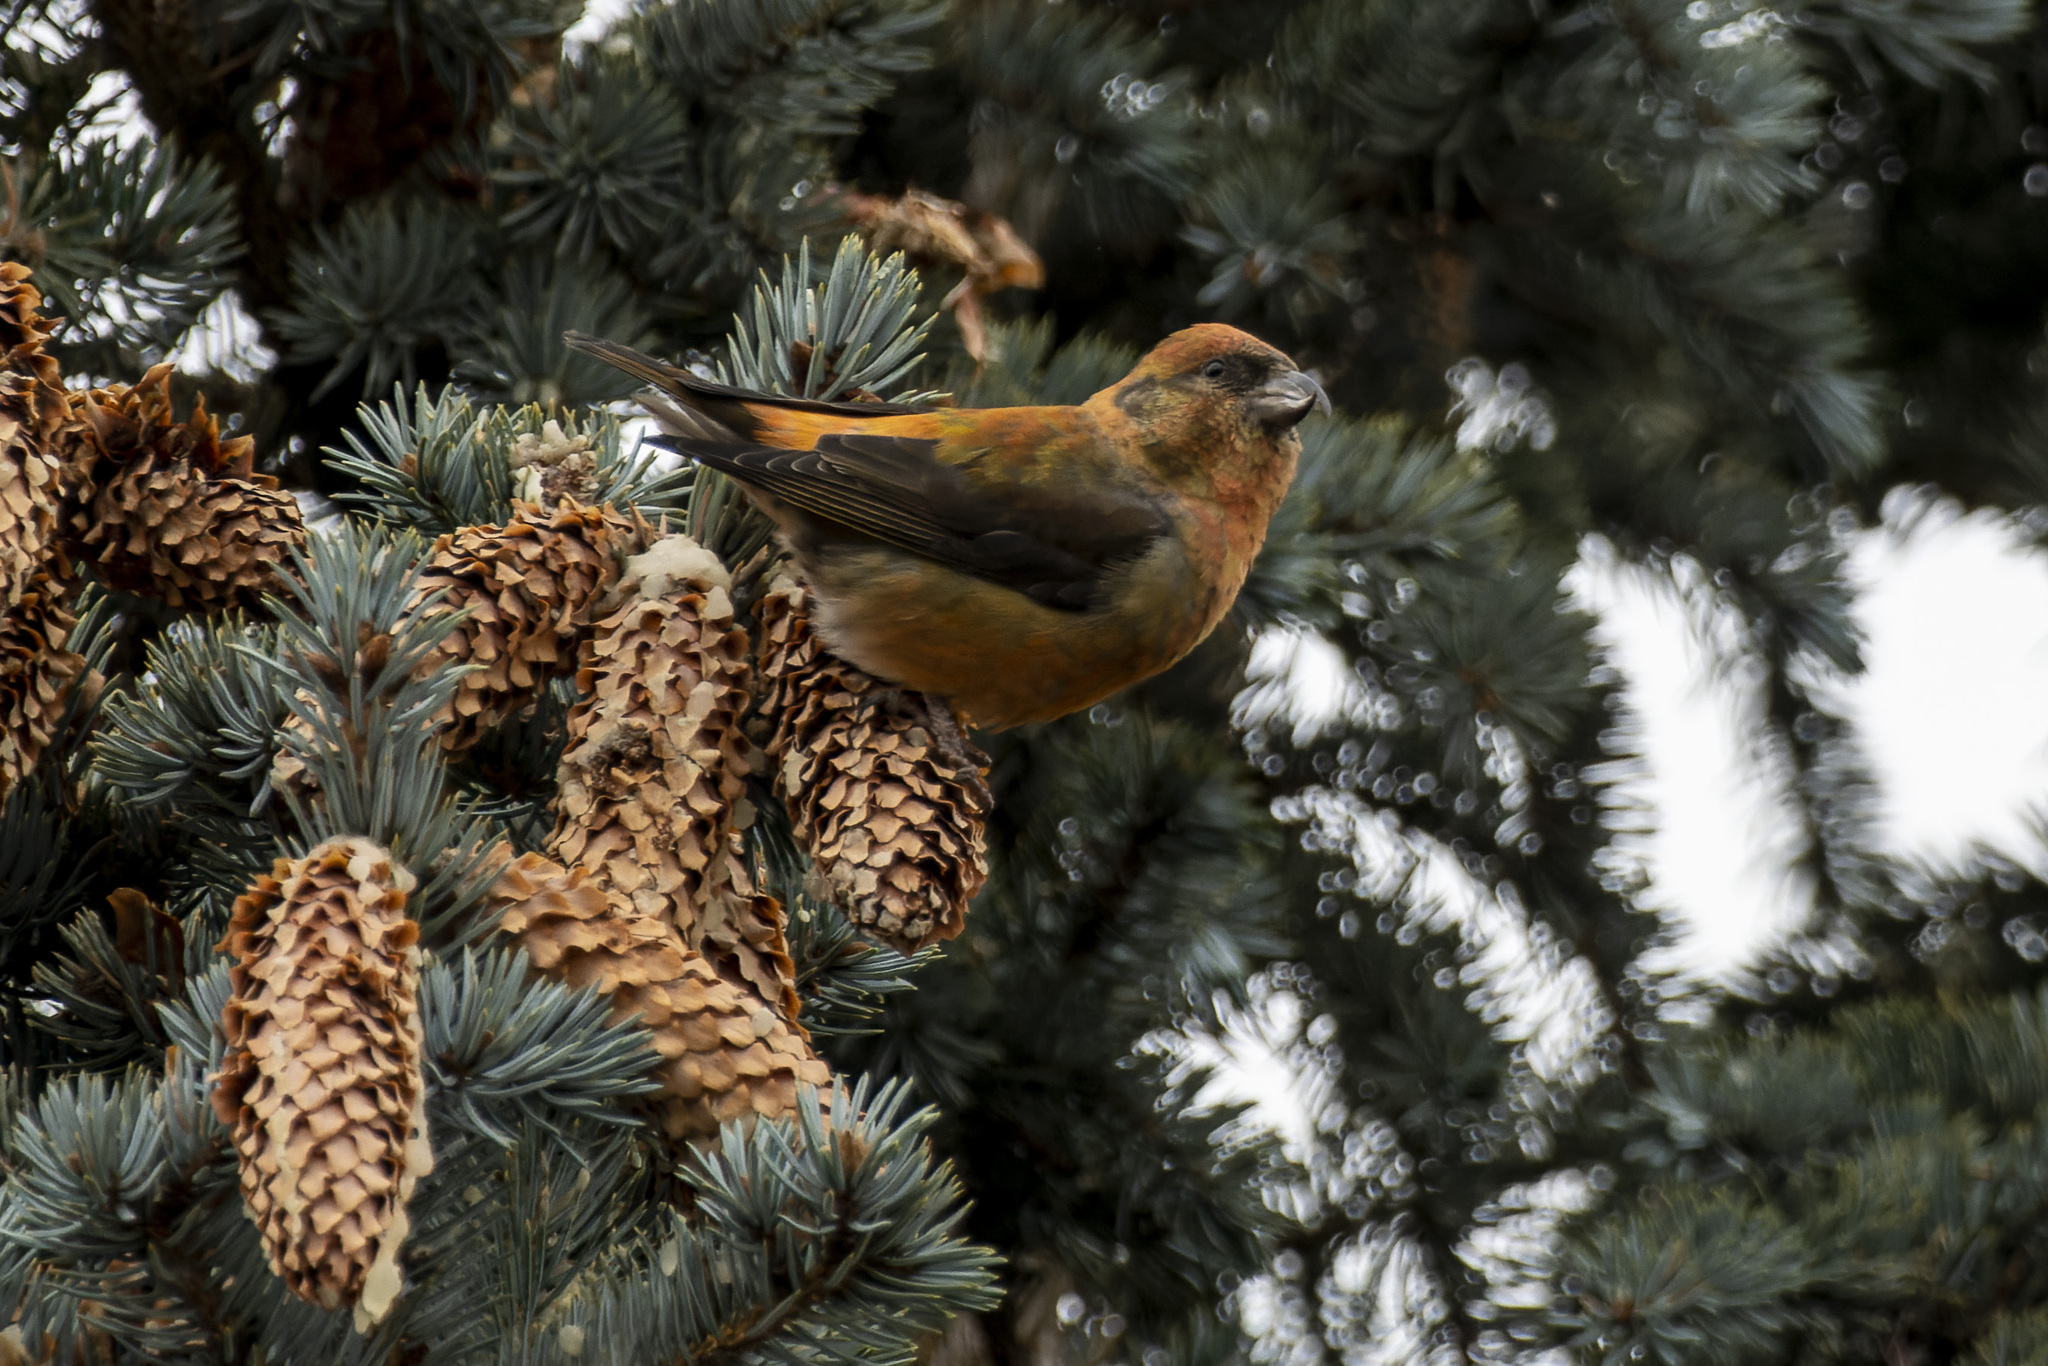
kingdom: Animalia
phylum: Chordata
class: Aves
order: Passeriformes
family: Fringillidae
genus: Loxia
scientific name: Loxia curvirostra
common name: Red crossbill
